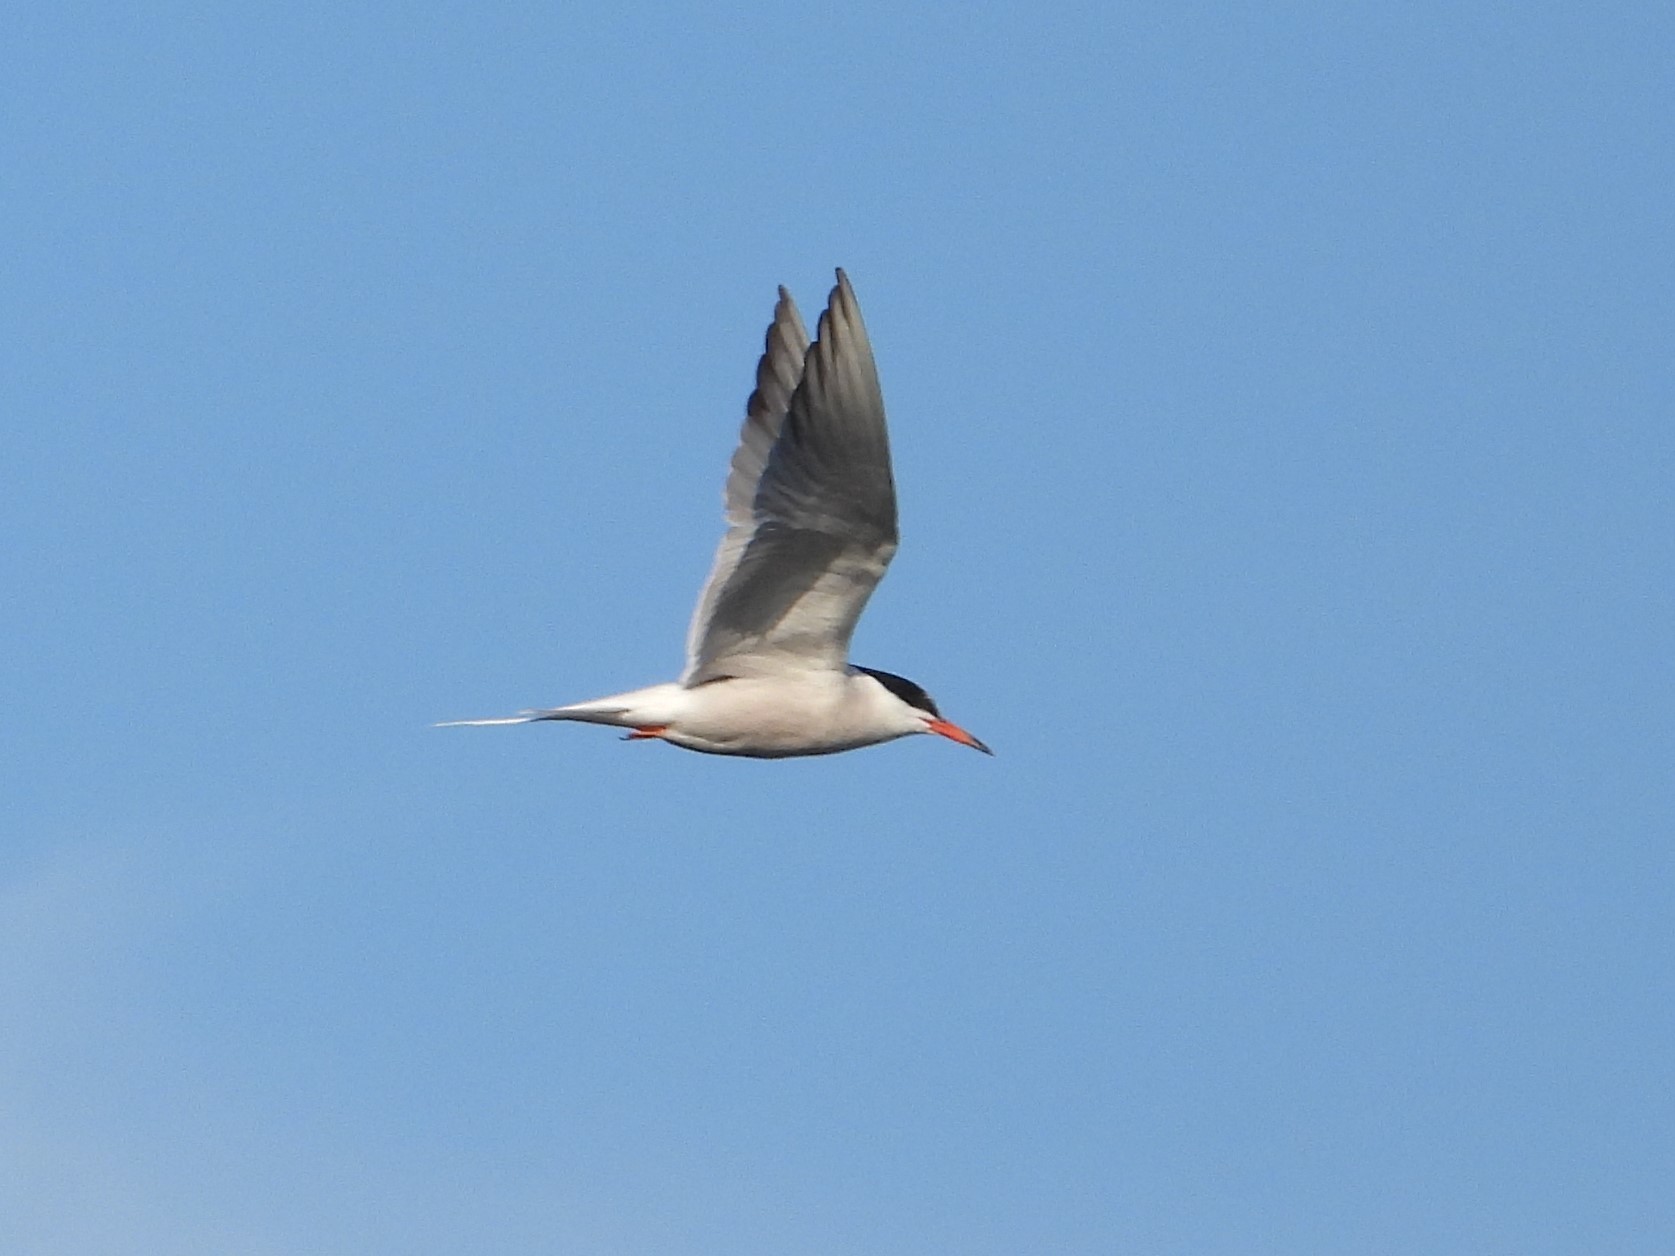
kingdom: Animalia
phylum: Chordata
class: Aves
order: Charadriiformes
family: Laridae
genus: Sterna
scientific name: Sterna hirundo
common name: Common tern
